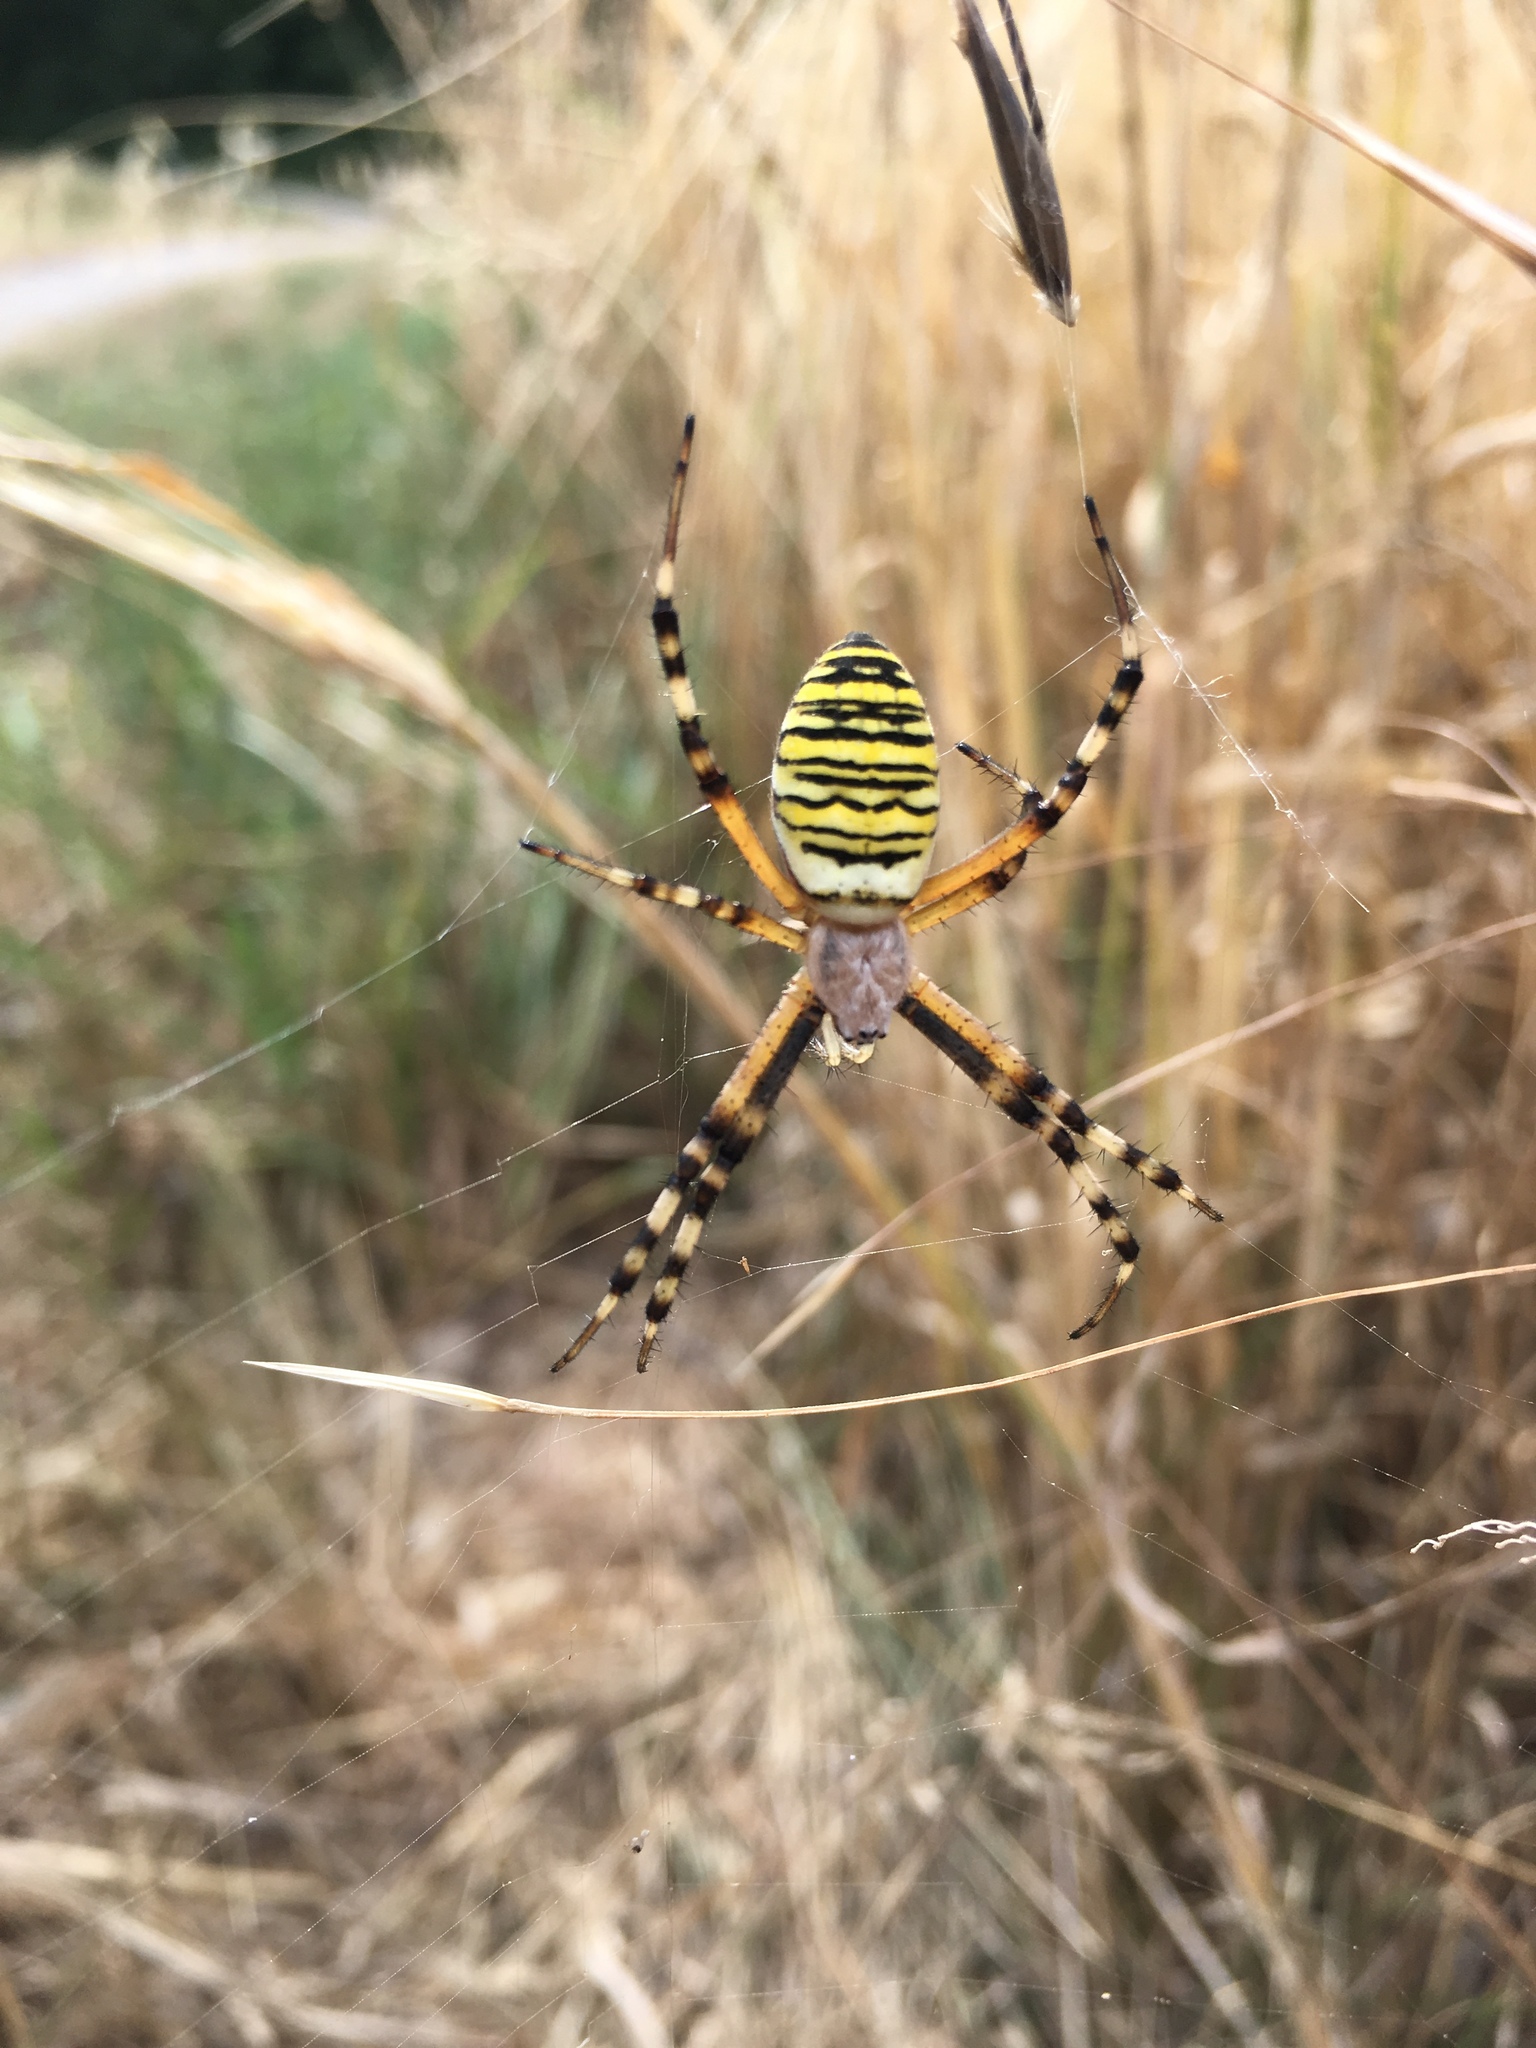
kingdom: Animalia
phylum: Arthropoda
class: Arachnida
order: Araneae
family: Araneidae
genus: Argiope
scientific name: Argiope bruennichi
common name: Wasp spider
